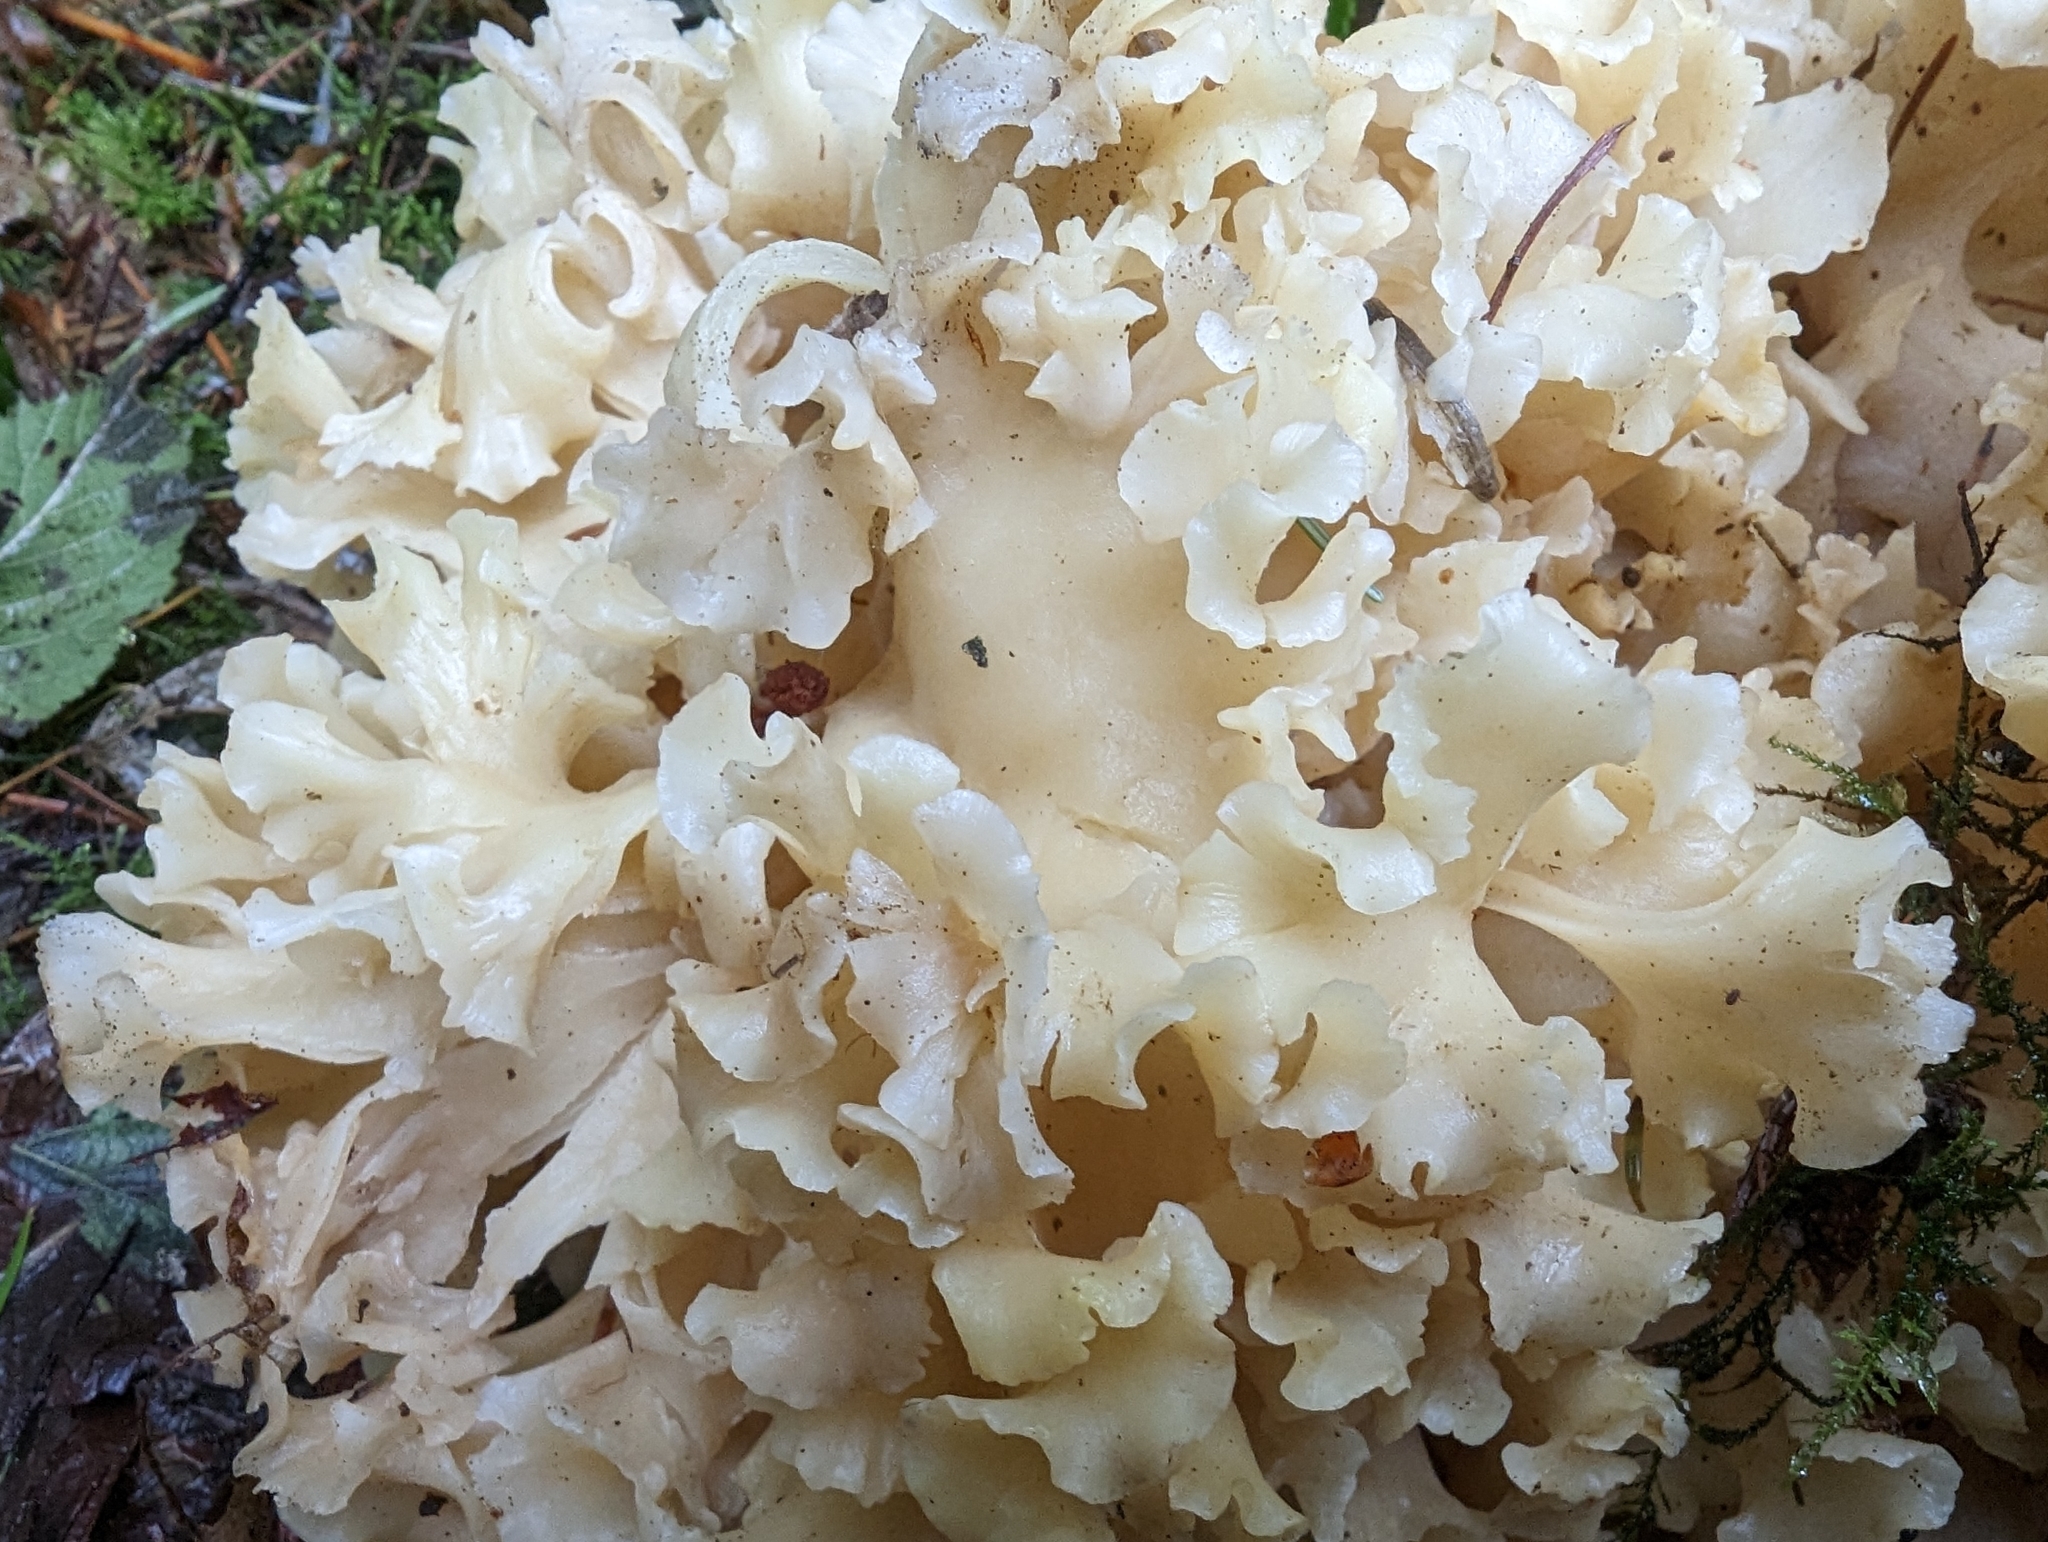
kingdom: Fungi
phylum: Basidiomycota
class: Agaricomycetes
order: Polyporales
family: Sparassidaceae
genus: Sparassis
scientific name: Sparassis radicata
